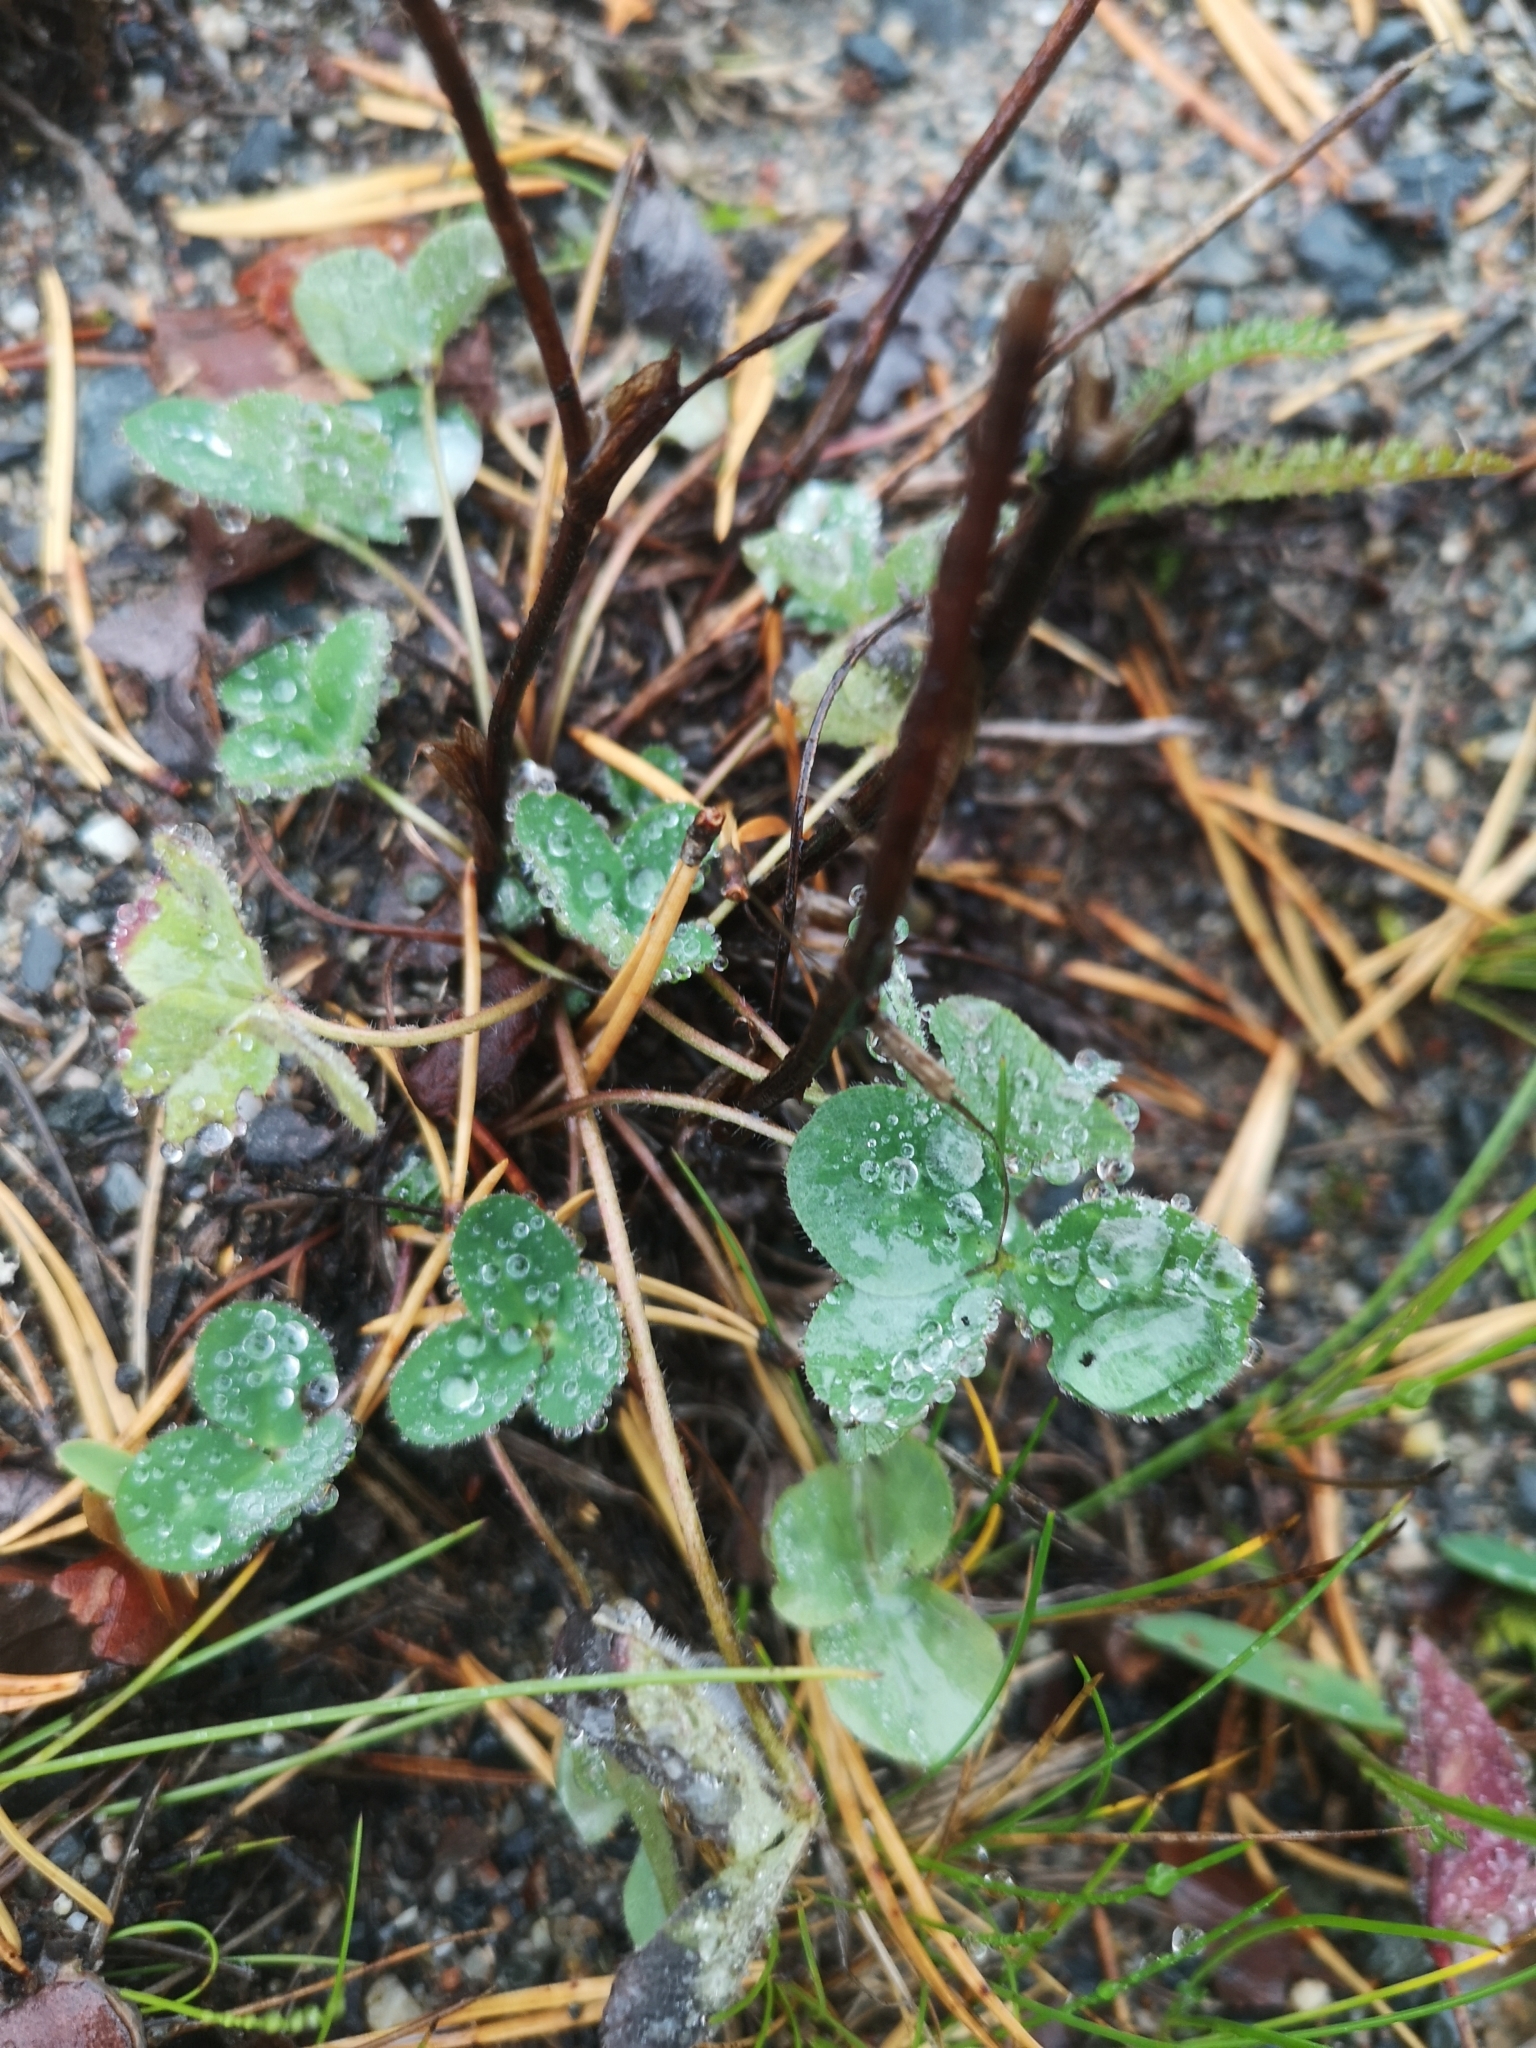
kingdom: Plantae
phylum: Tracheophyta
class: Magnoliopsida
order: Fabales
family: Fabaceae
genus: Trifolium
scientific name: Trifolium pratense
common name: Red clover
